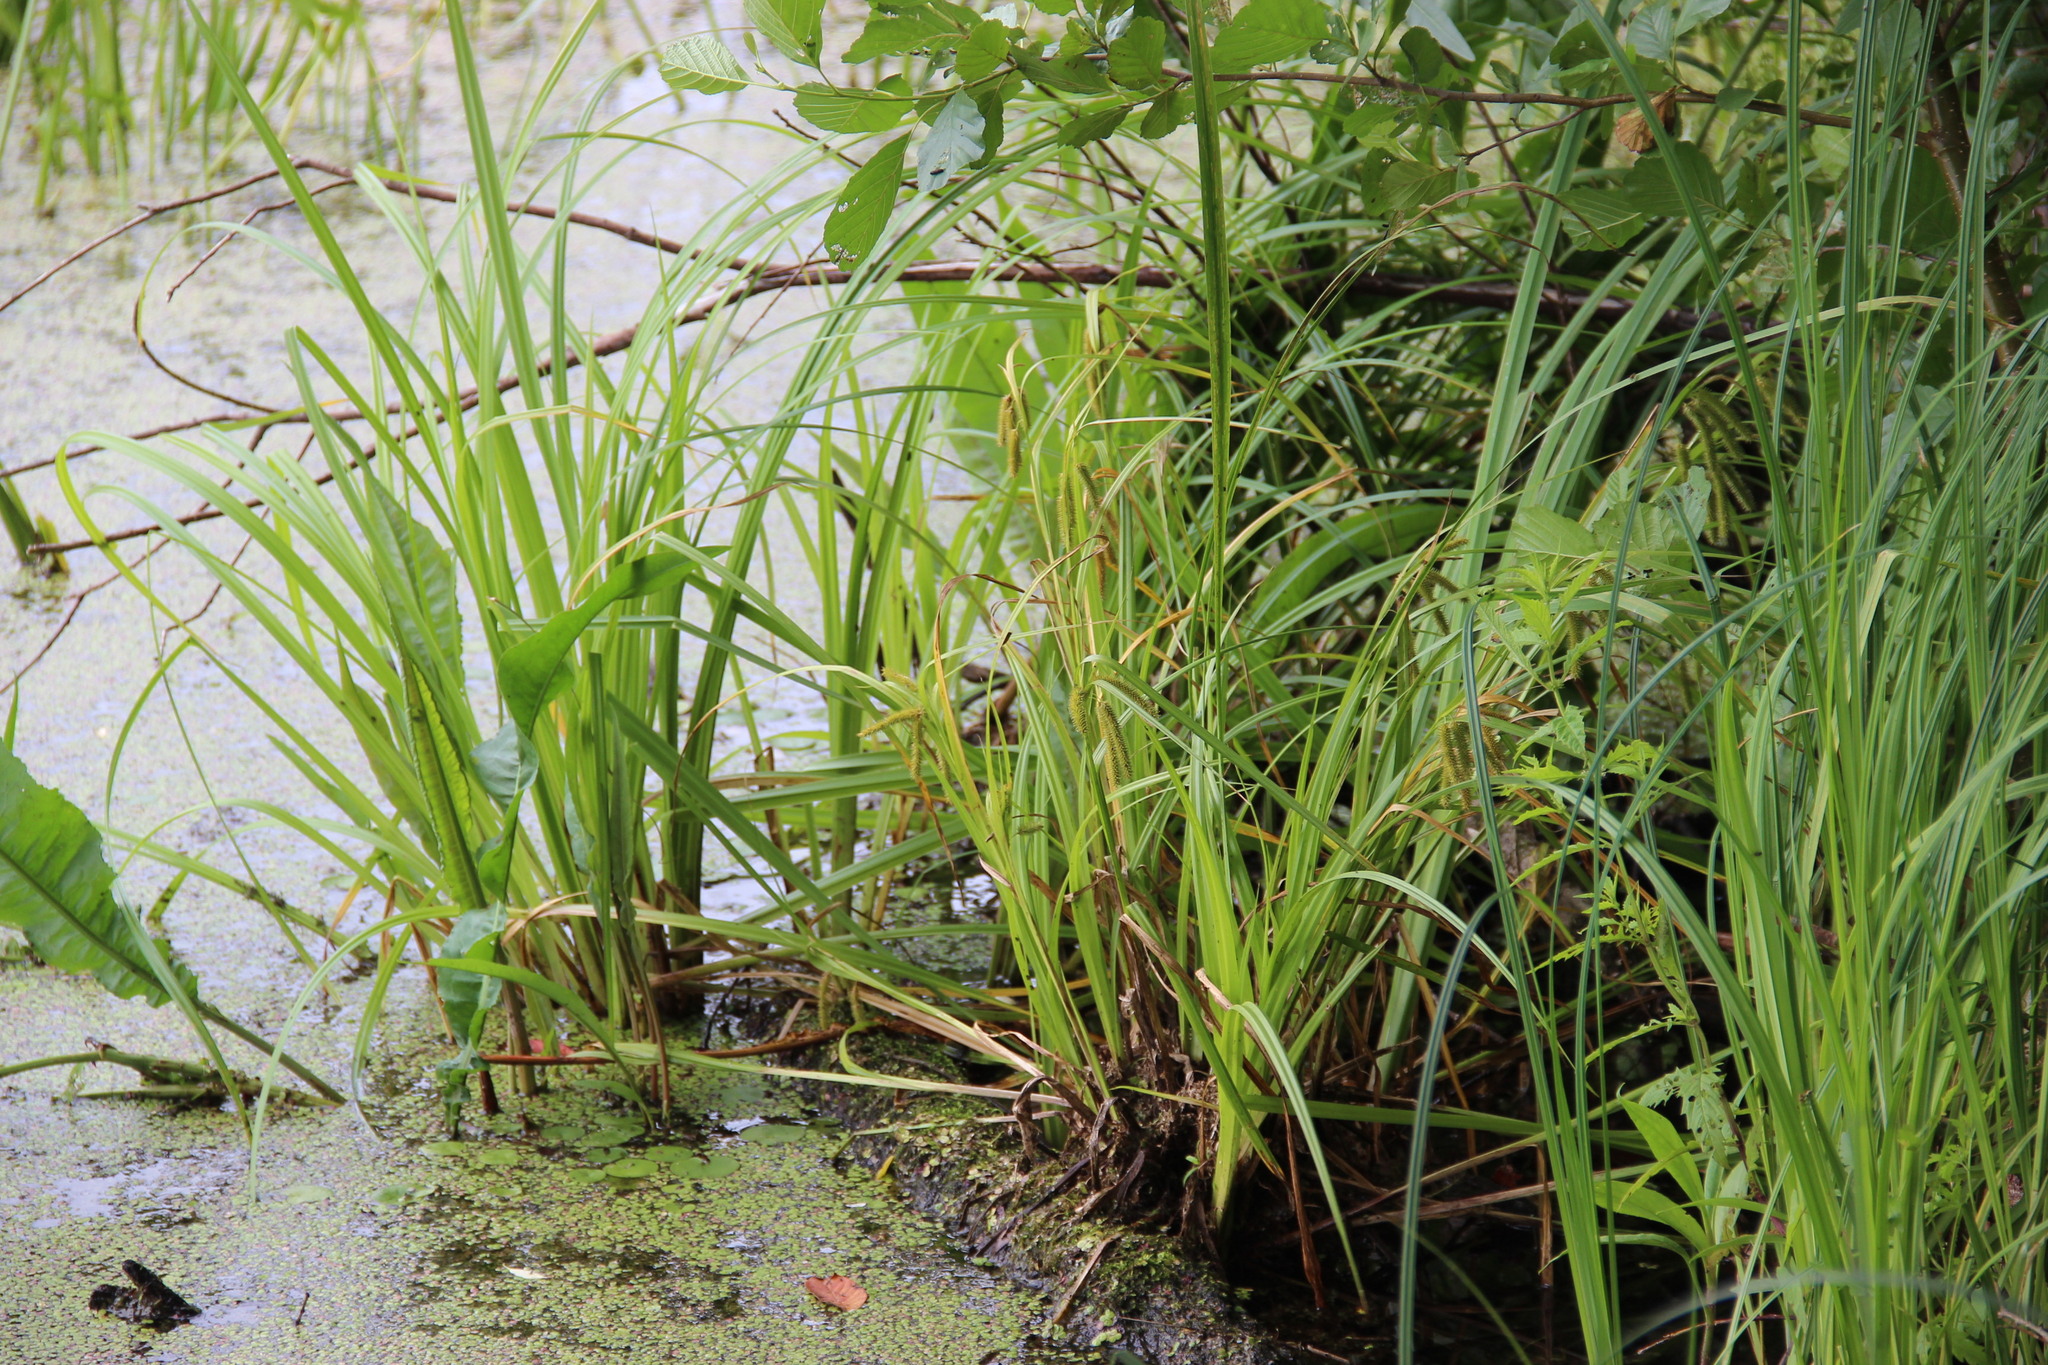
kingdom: Plantae
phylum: Tracheophyta
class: Liliopsida
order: Poales
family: Cyperaceae
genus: Carex
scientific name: Carex pseudocyperus
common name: Cyperus sedge
